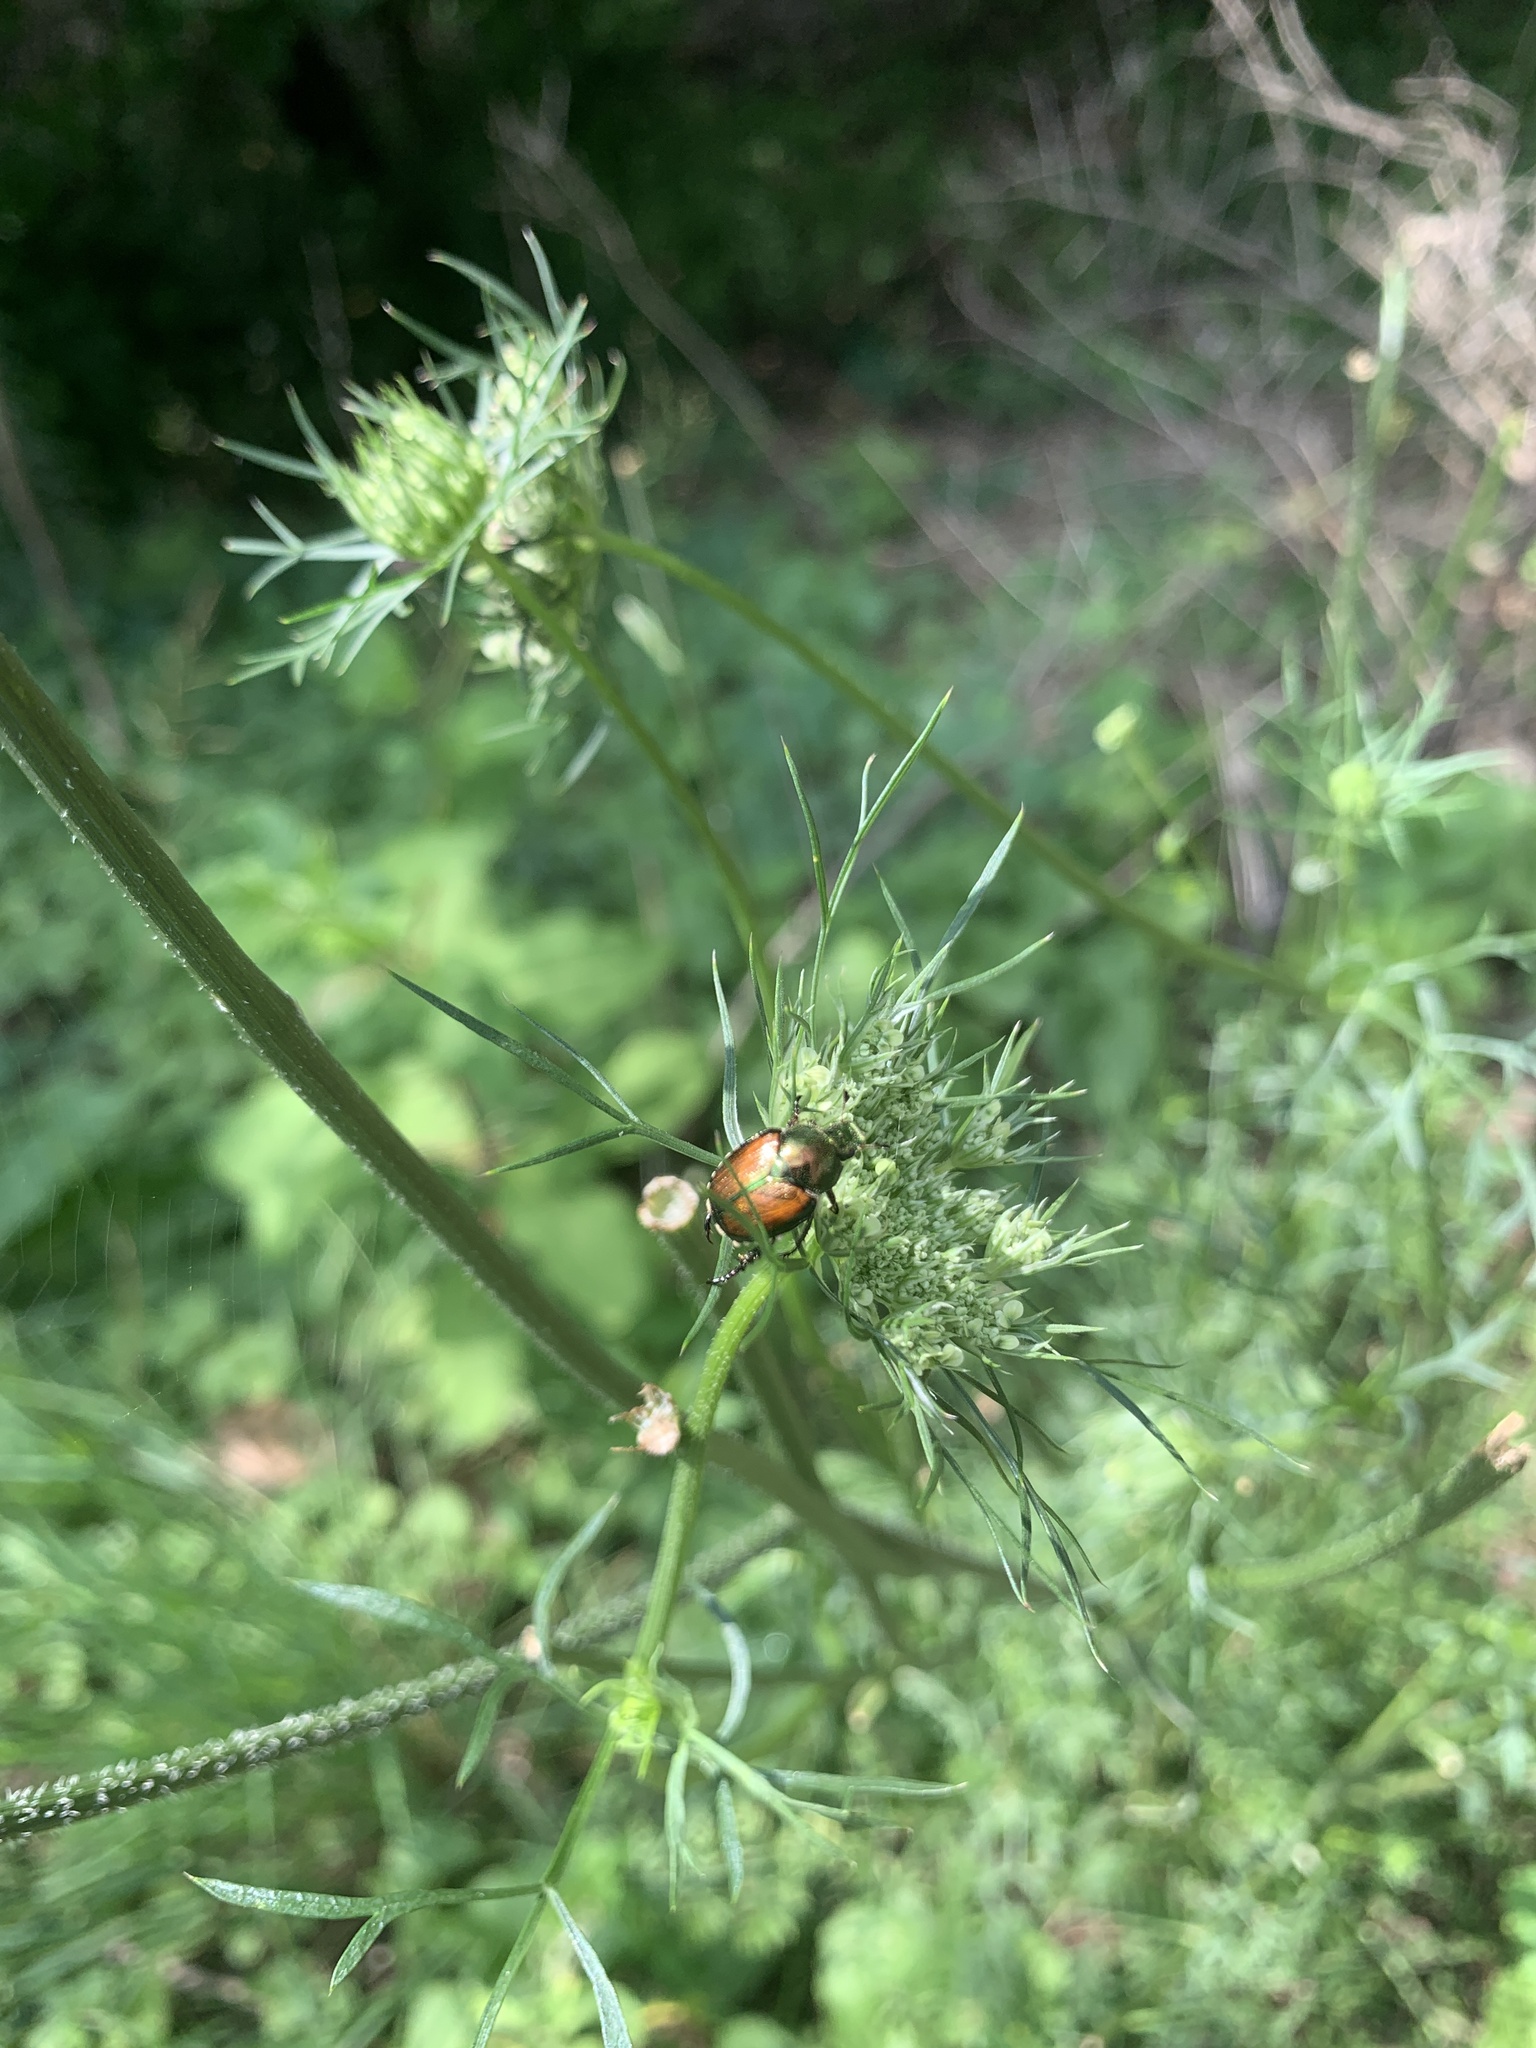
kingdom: Animalia
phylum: Arthropoda
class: Insecta
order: Coleoptera
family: Scarabaeidae
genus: Popillia
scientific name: Popillia japonica
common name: Japanese beetle
